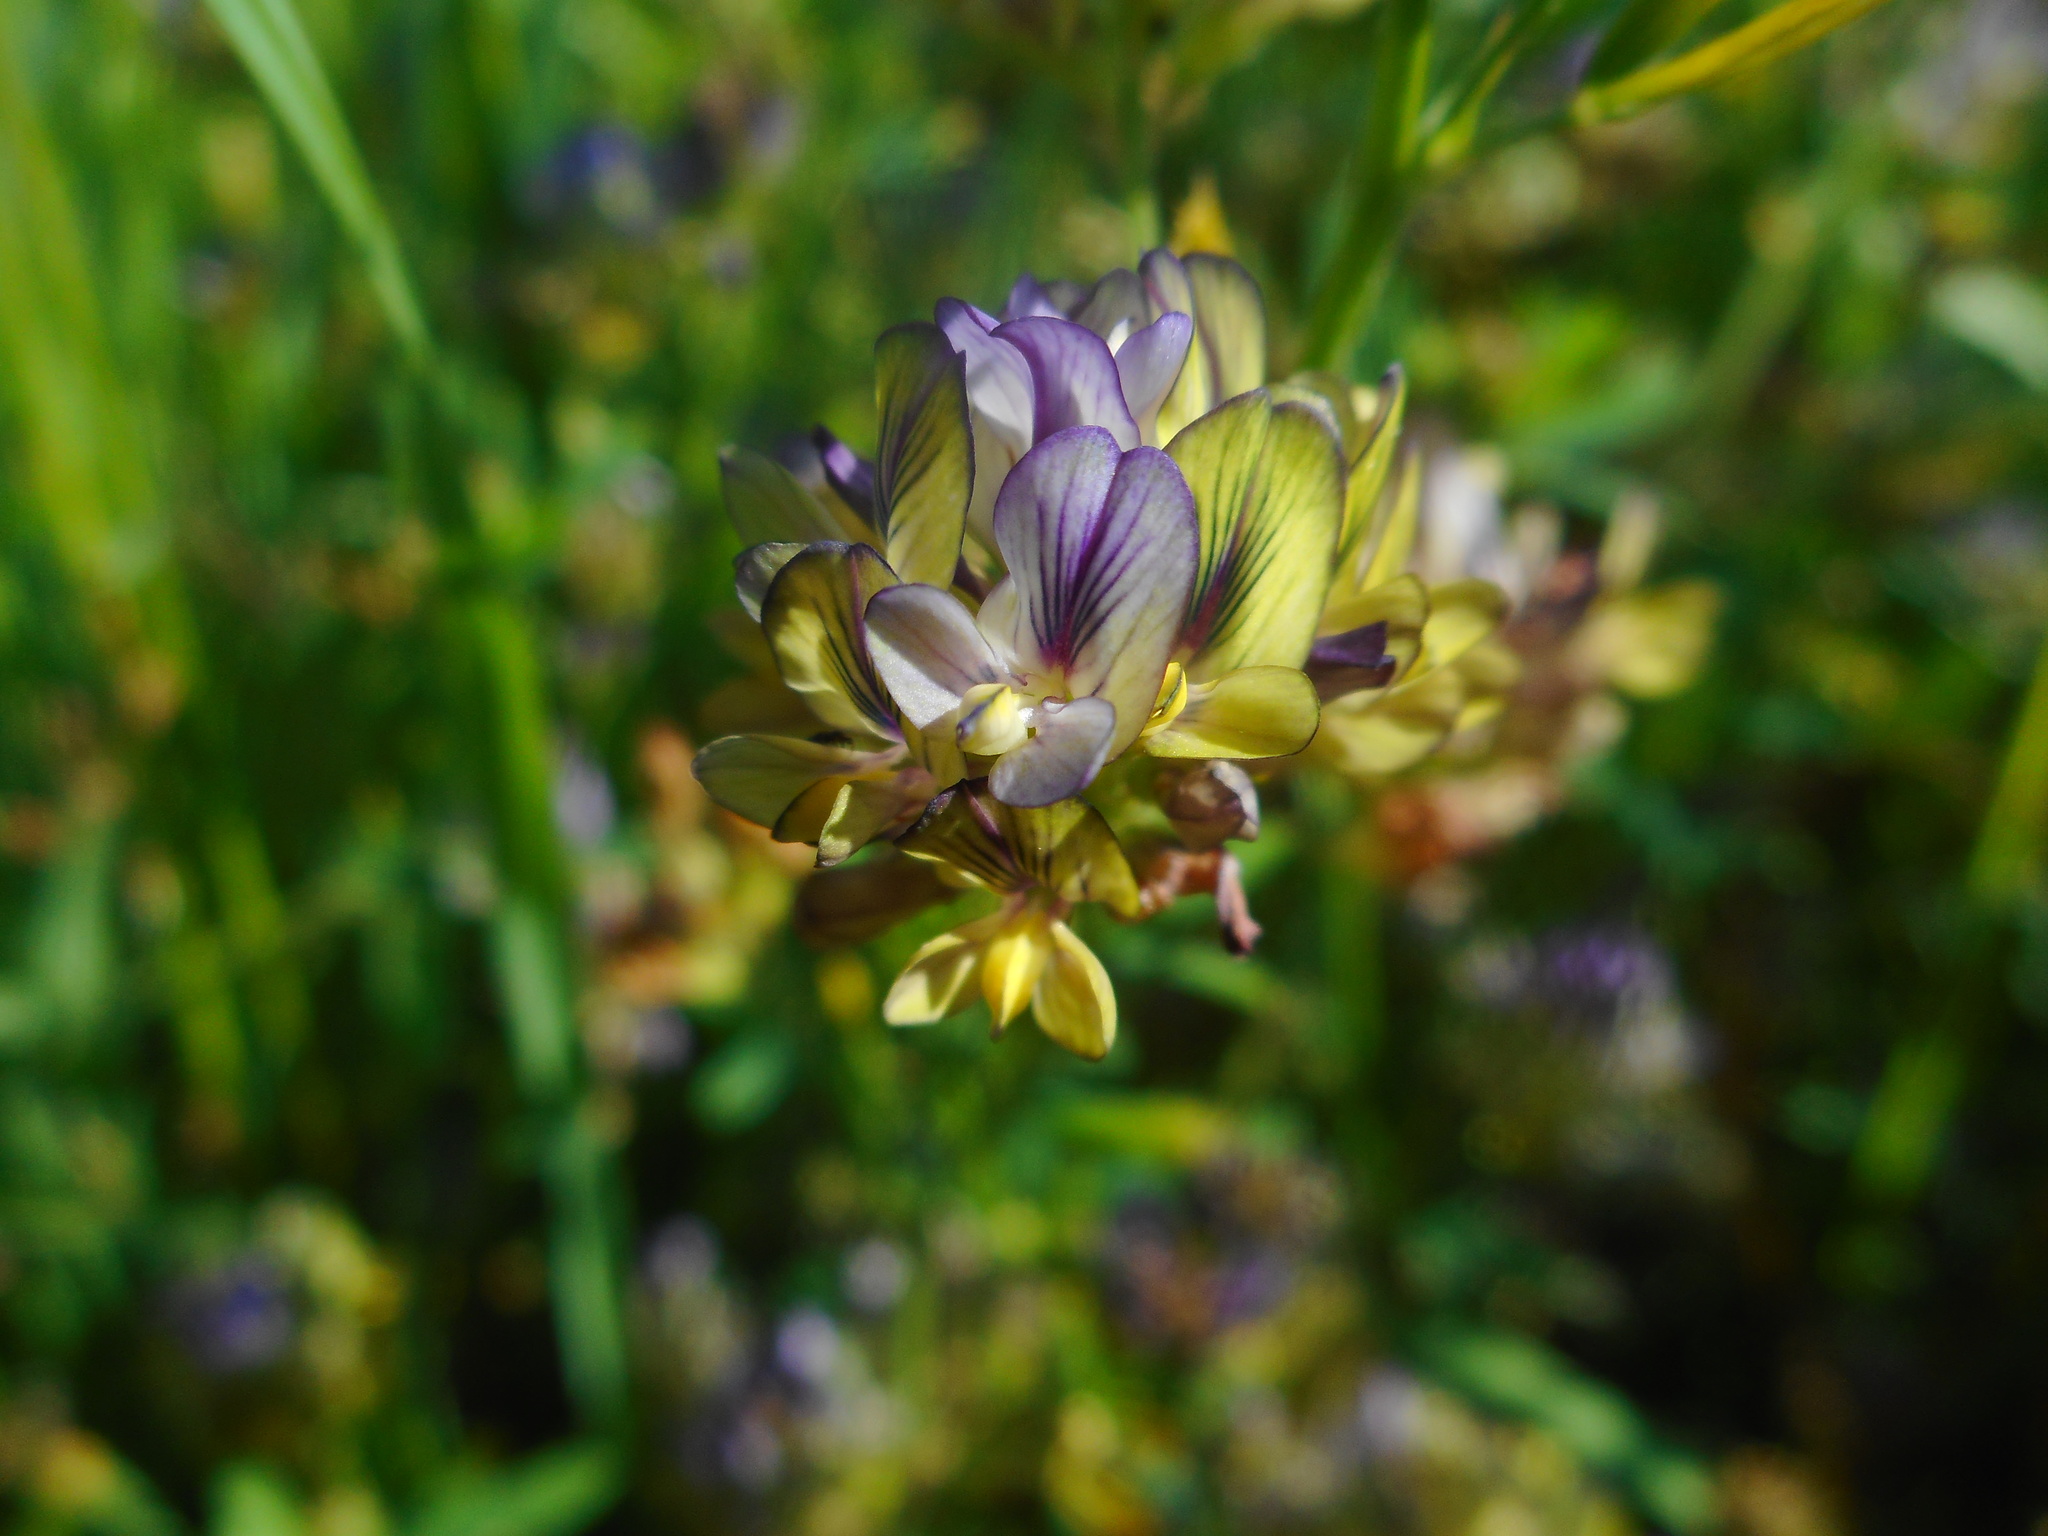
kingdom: Plantae
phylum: Tracheophyta
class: Magnoliopsida
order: Fabales
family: Fabaceae
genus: Medicago
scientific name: Medicago varia
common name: Sand lucerne
